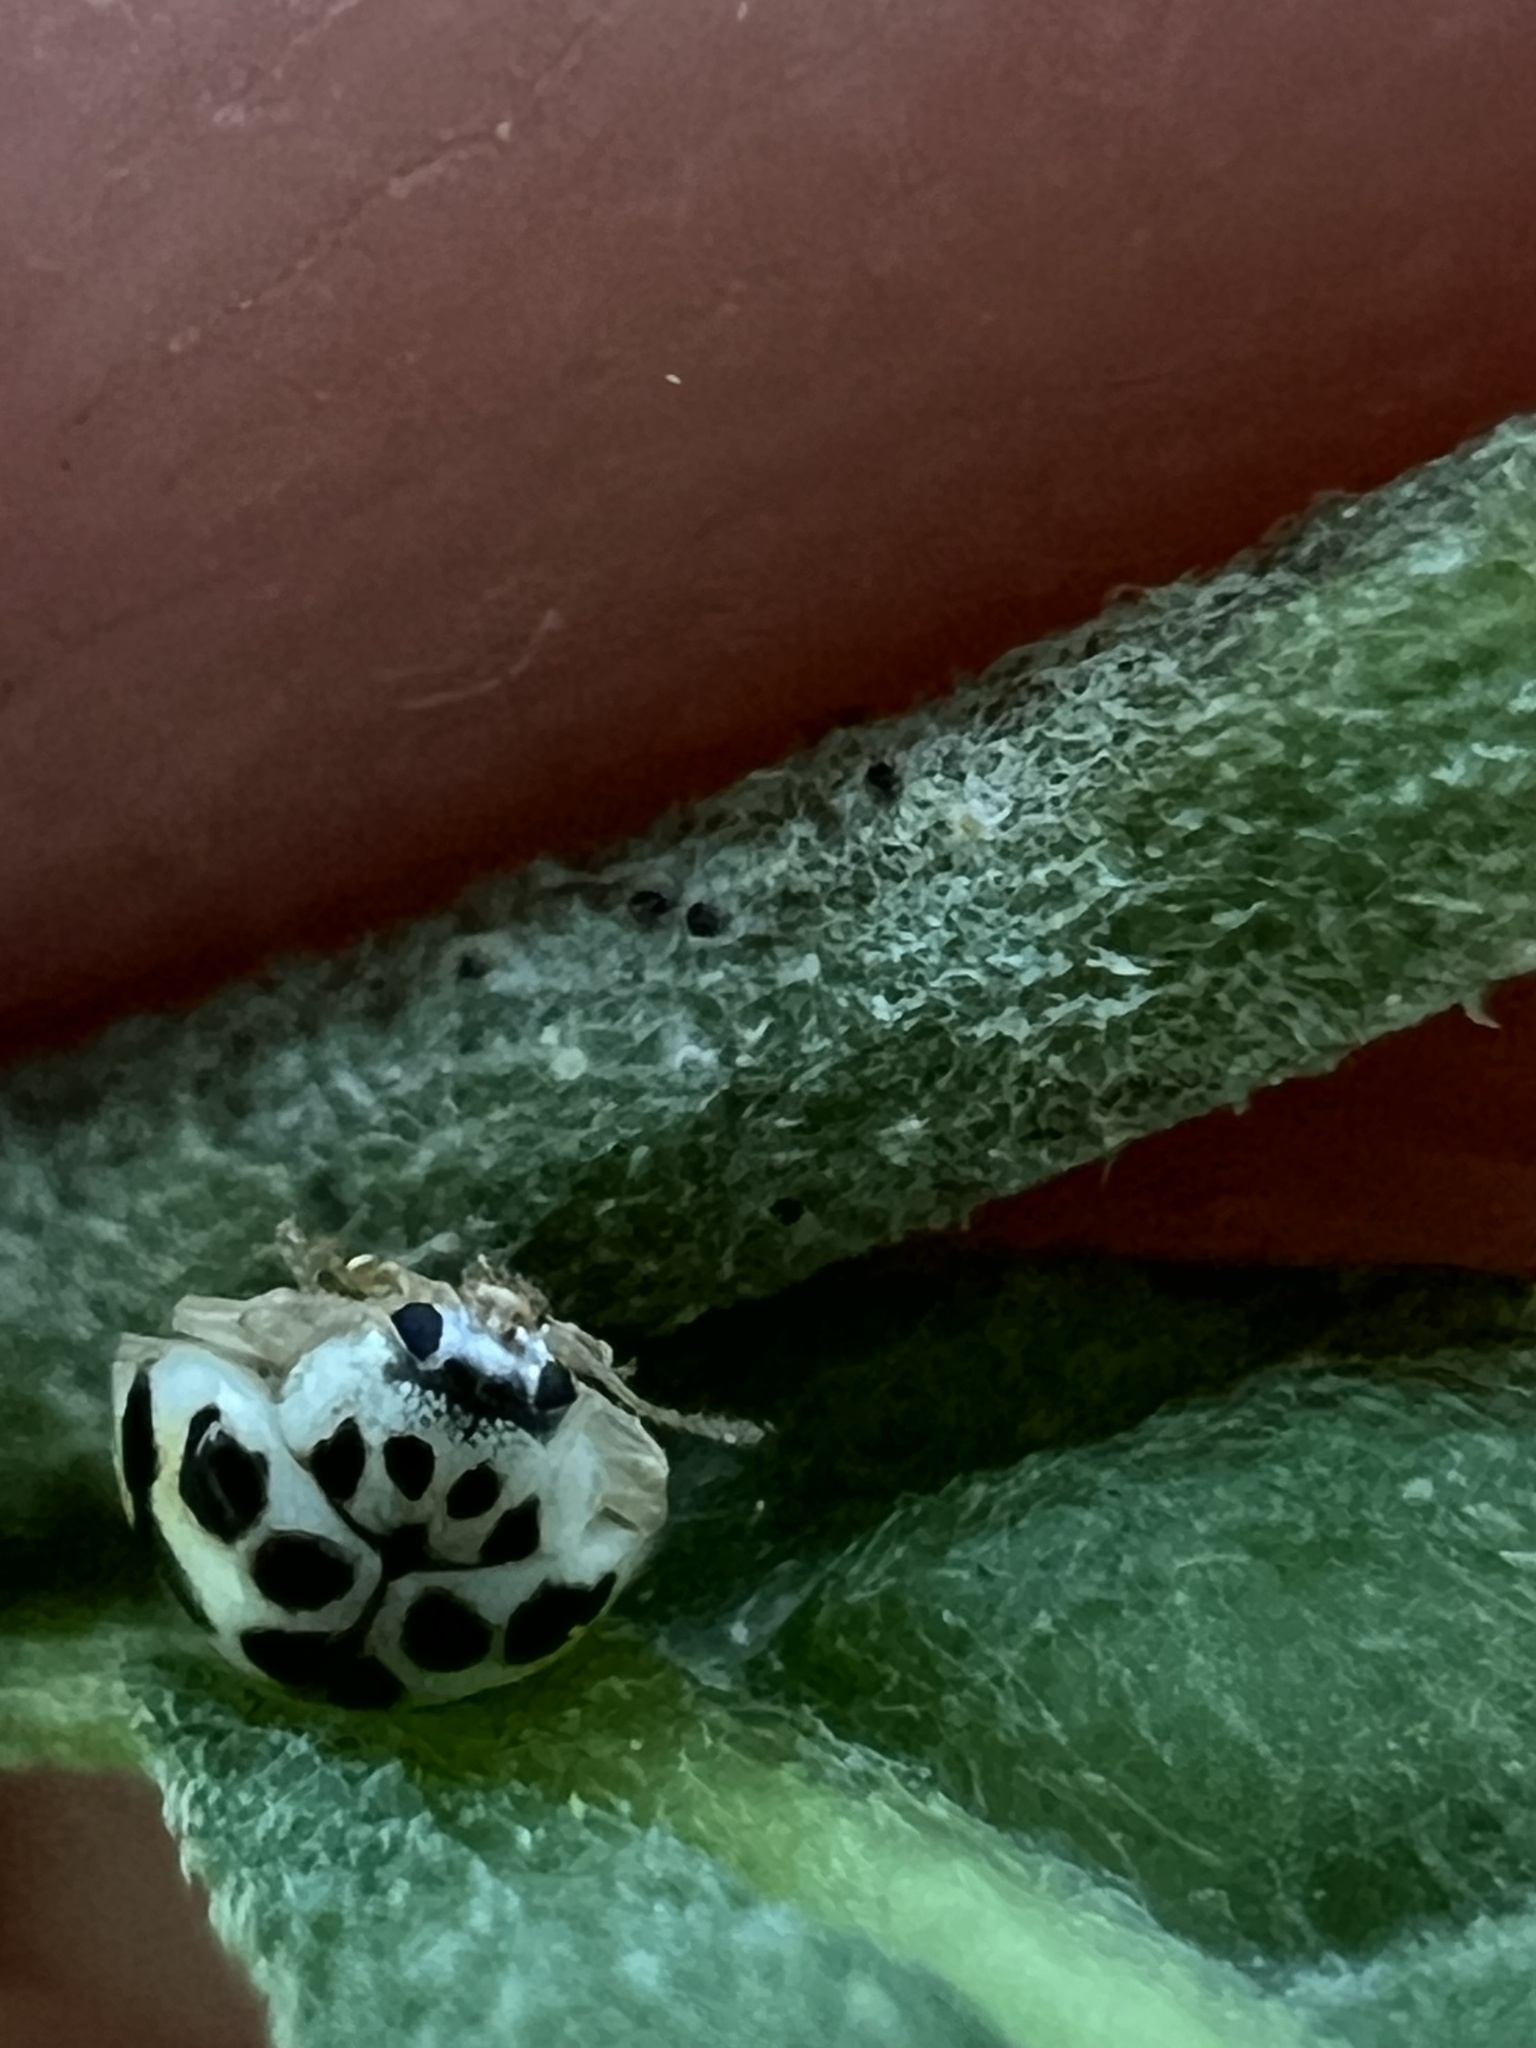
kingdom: Animalia
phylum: Arthropoda
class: Insecta
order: Coleoptera
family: Coccinellidae
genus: Psyllobora
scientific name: Psyllobora vigintimaculata
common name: Ladybird beetle
